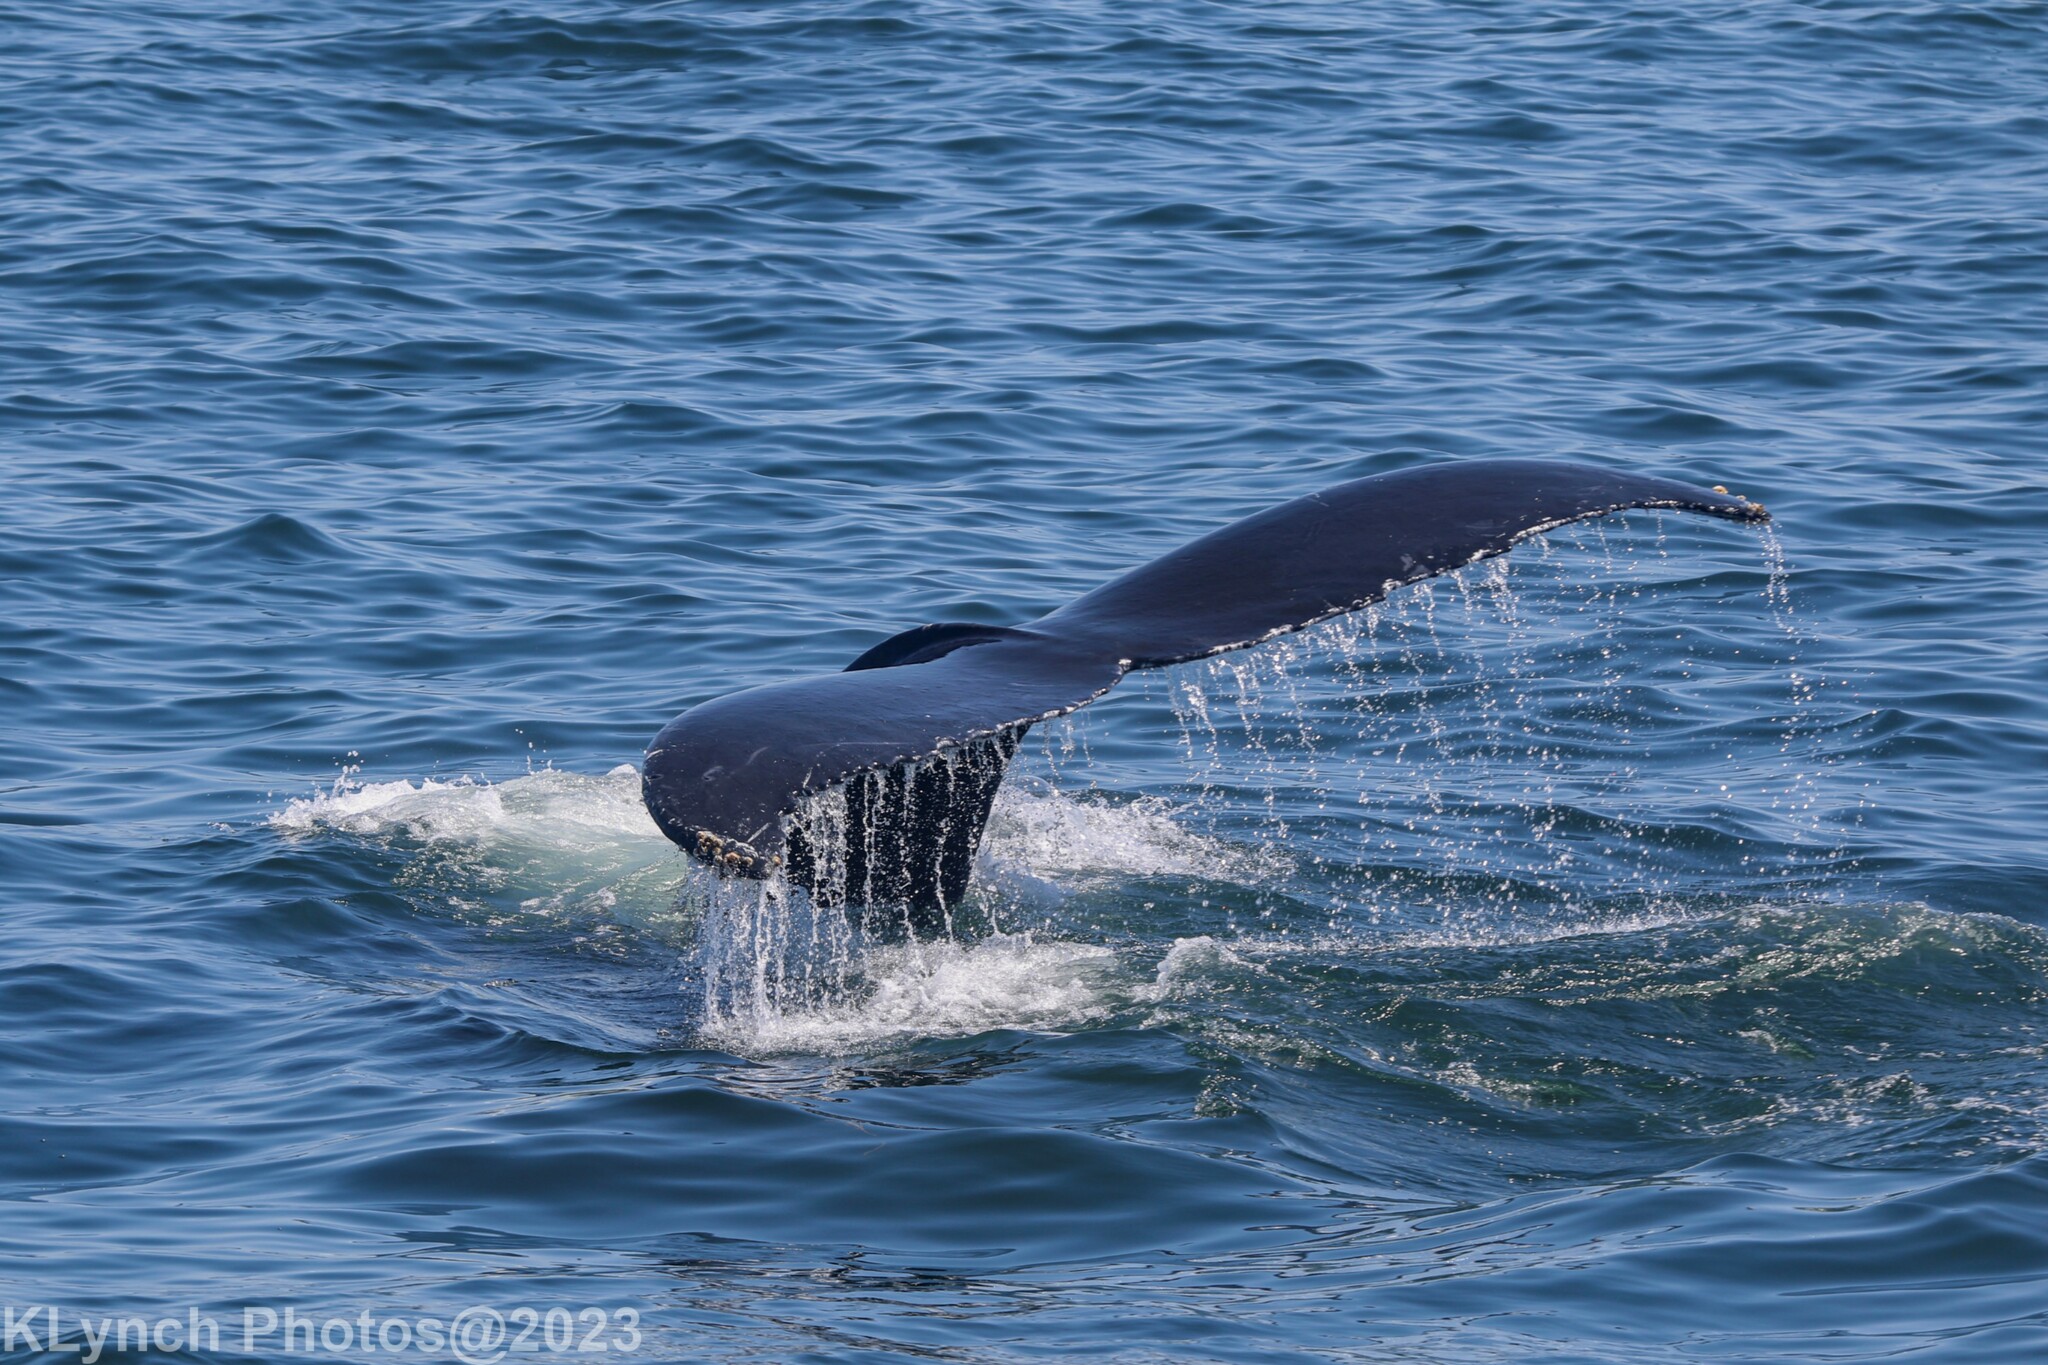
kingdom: Animalia
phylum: Chordata
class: Mammalia
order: Cetacea
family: Balaenopteridae
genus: Megaptera
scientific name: Megaptera novaeangliae
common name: Humpback whale
